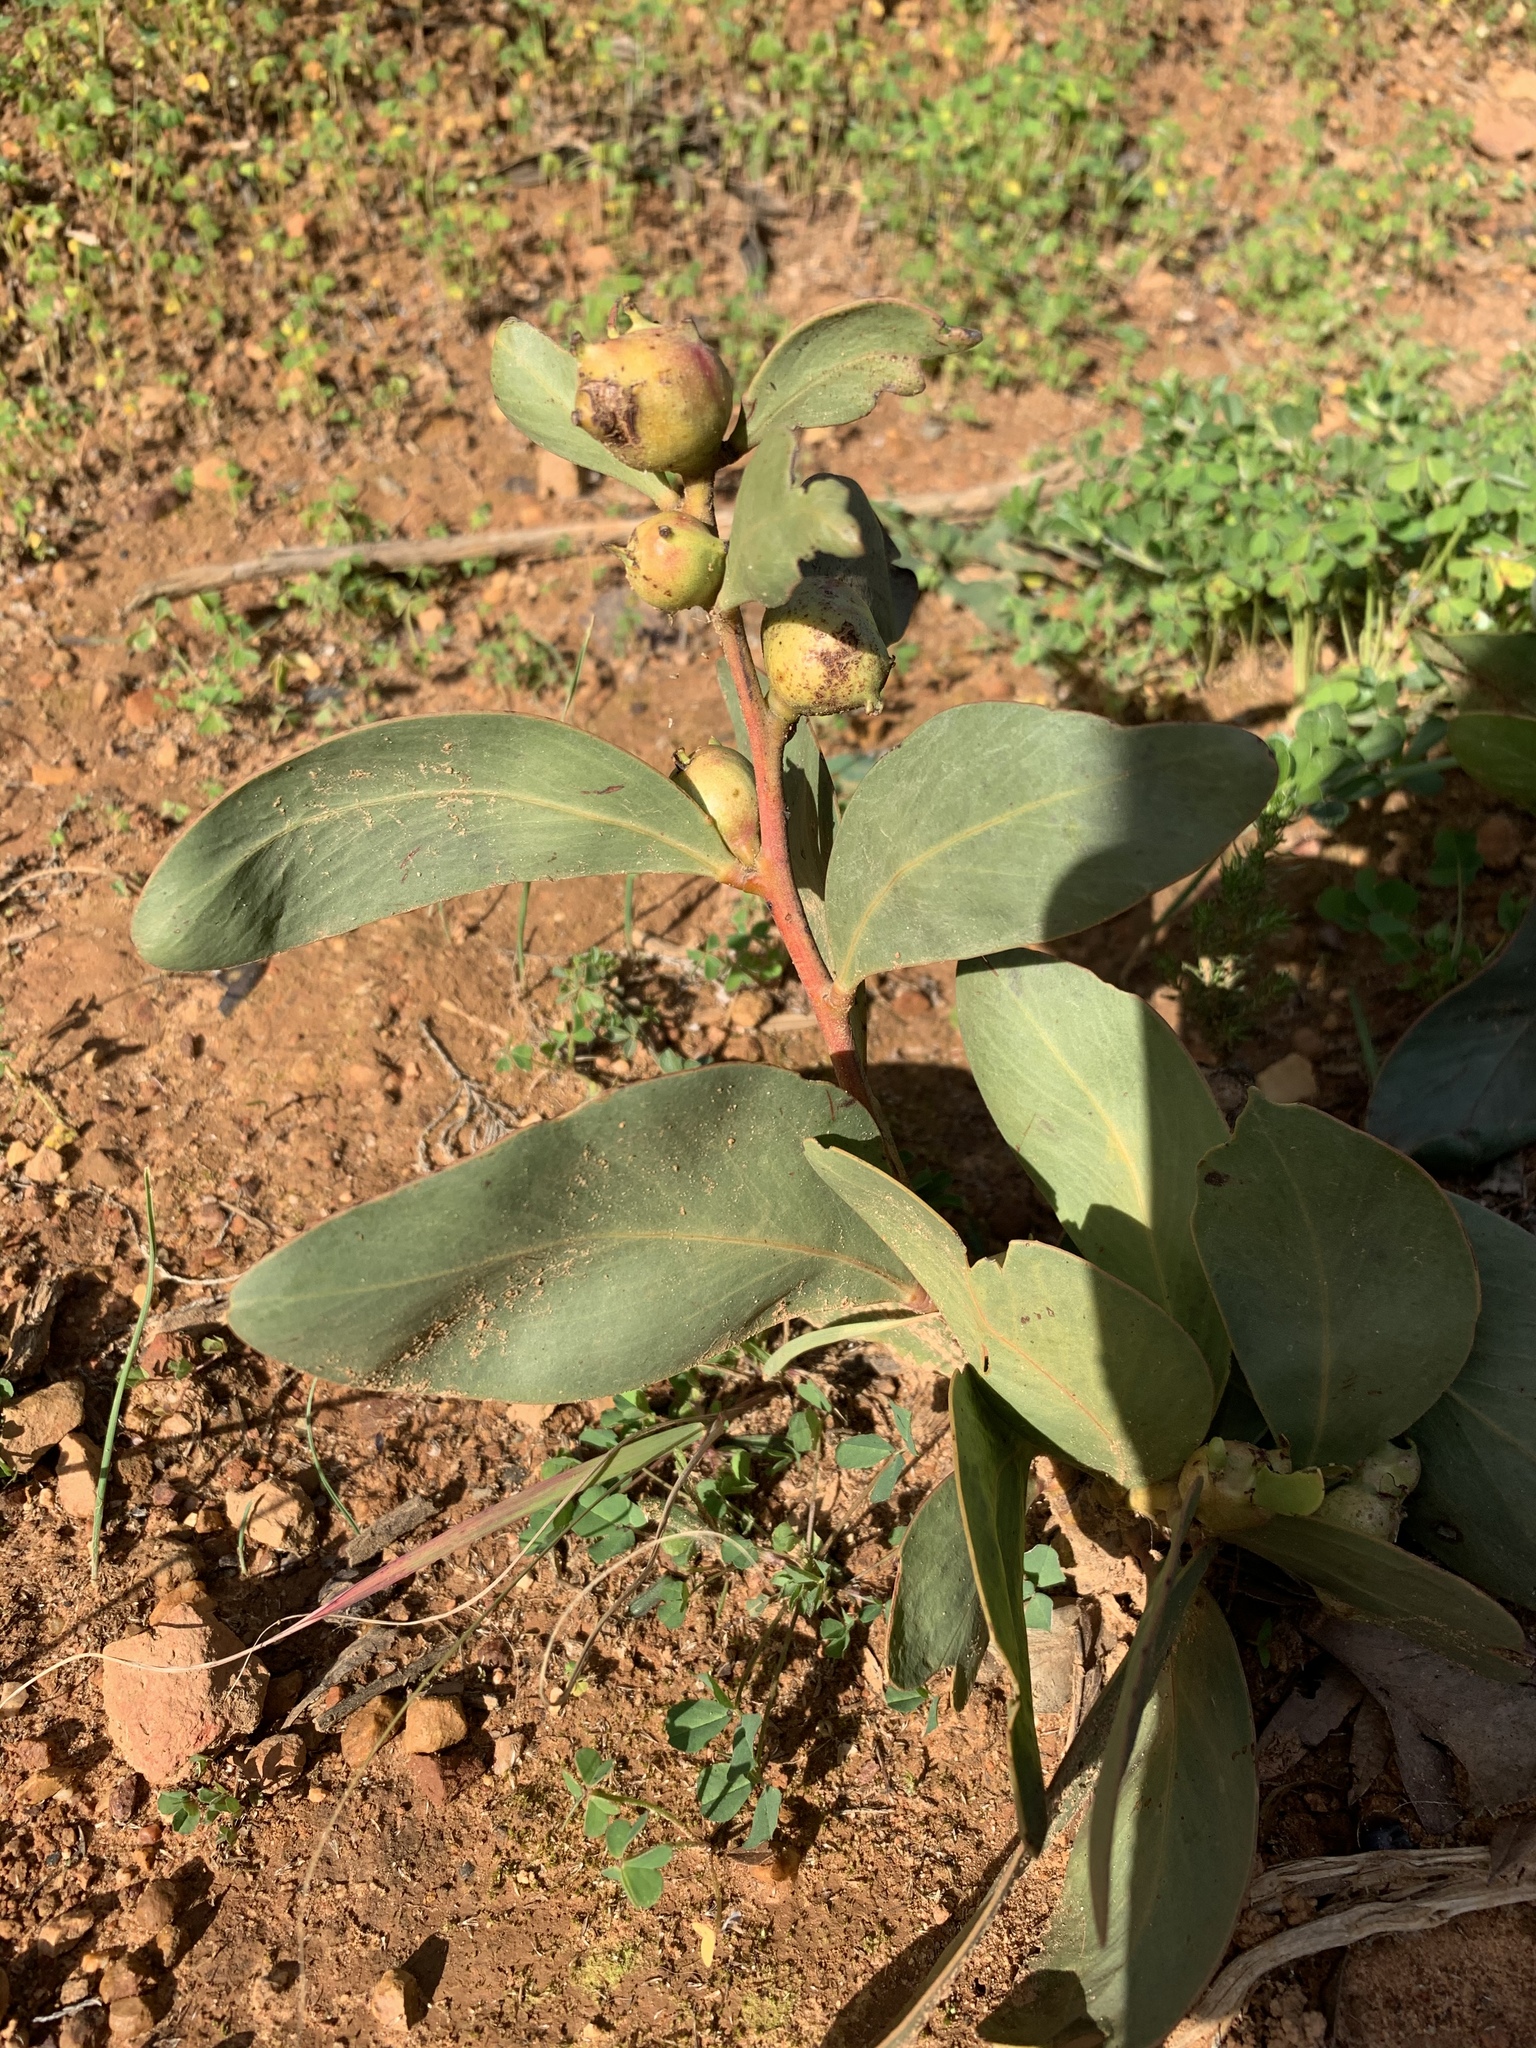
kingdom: Plantae
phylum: Tracheophyta
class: Magnoliopsida
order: Fabales
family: Fabaceae
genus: Acacia
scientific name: Acacia pycnantha
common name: Golden wattle
